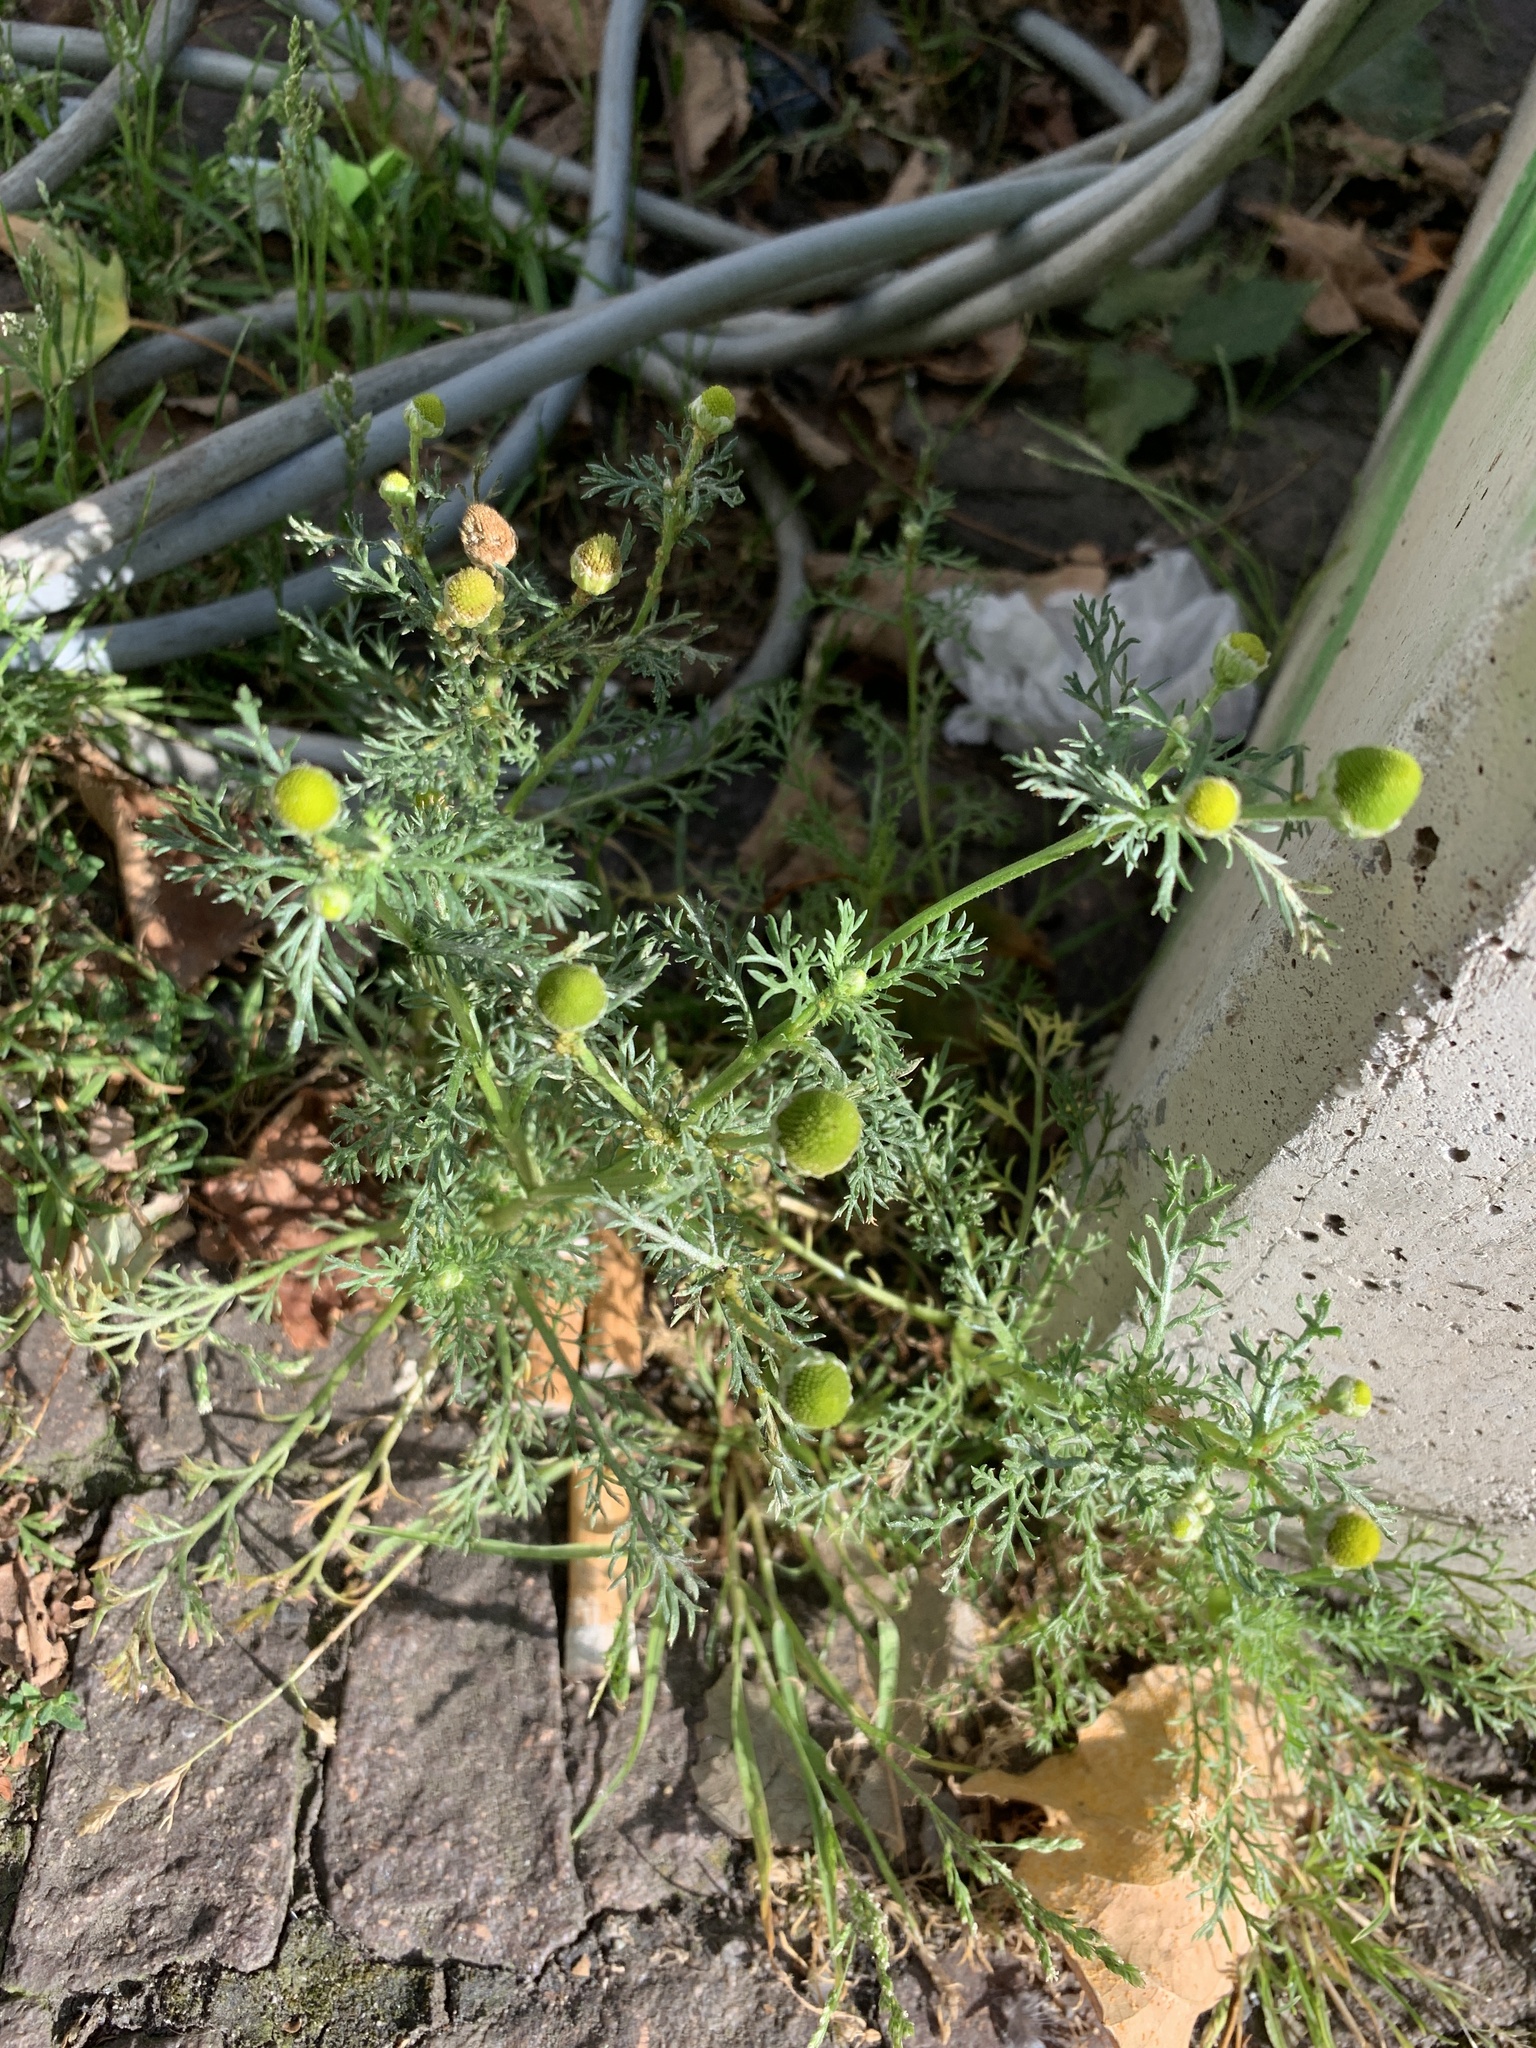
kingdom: Plantae
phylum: Tracheophyta
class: Magnoliopsida
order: Asterales
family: Asteraceae
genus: Matricaria
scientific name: Matricaria discoidea
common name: Disc mayweed
